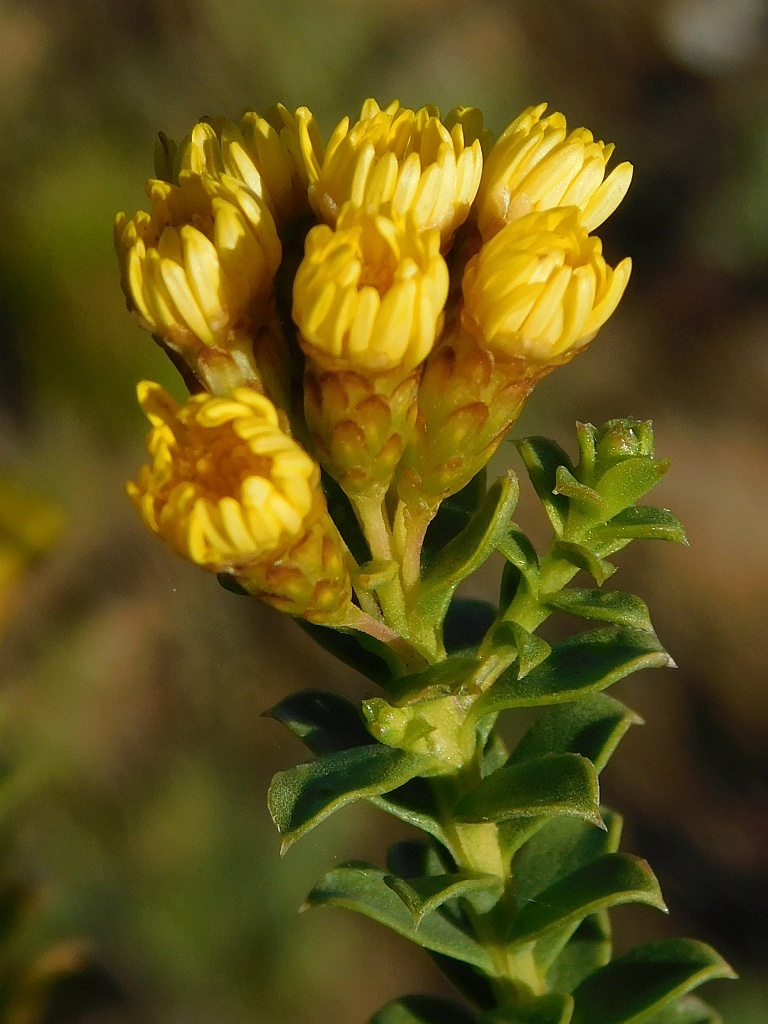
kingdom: Plantae
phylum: Tracheophyta
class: Magnoliopsida
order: Asterales
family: Asteraceae
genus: Oedera
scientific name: Oedera squarrosa
